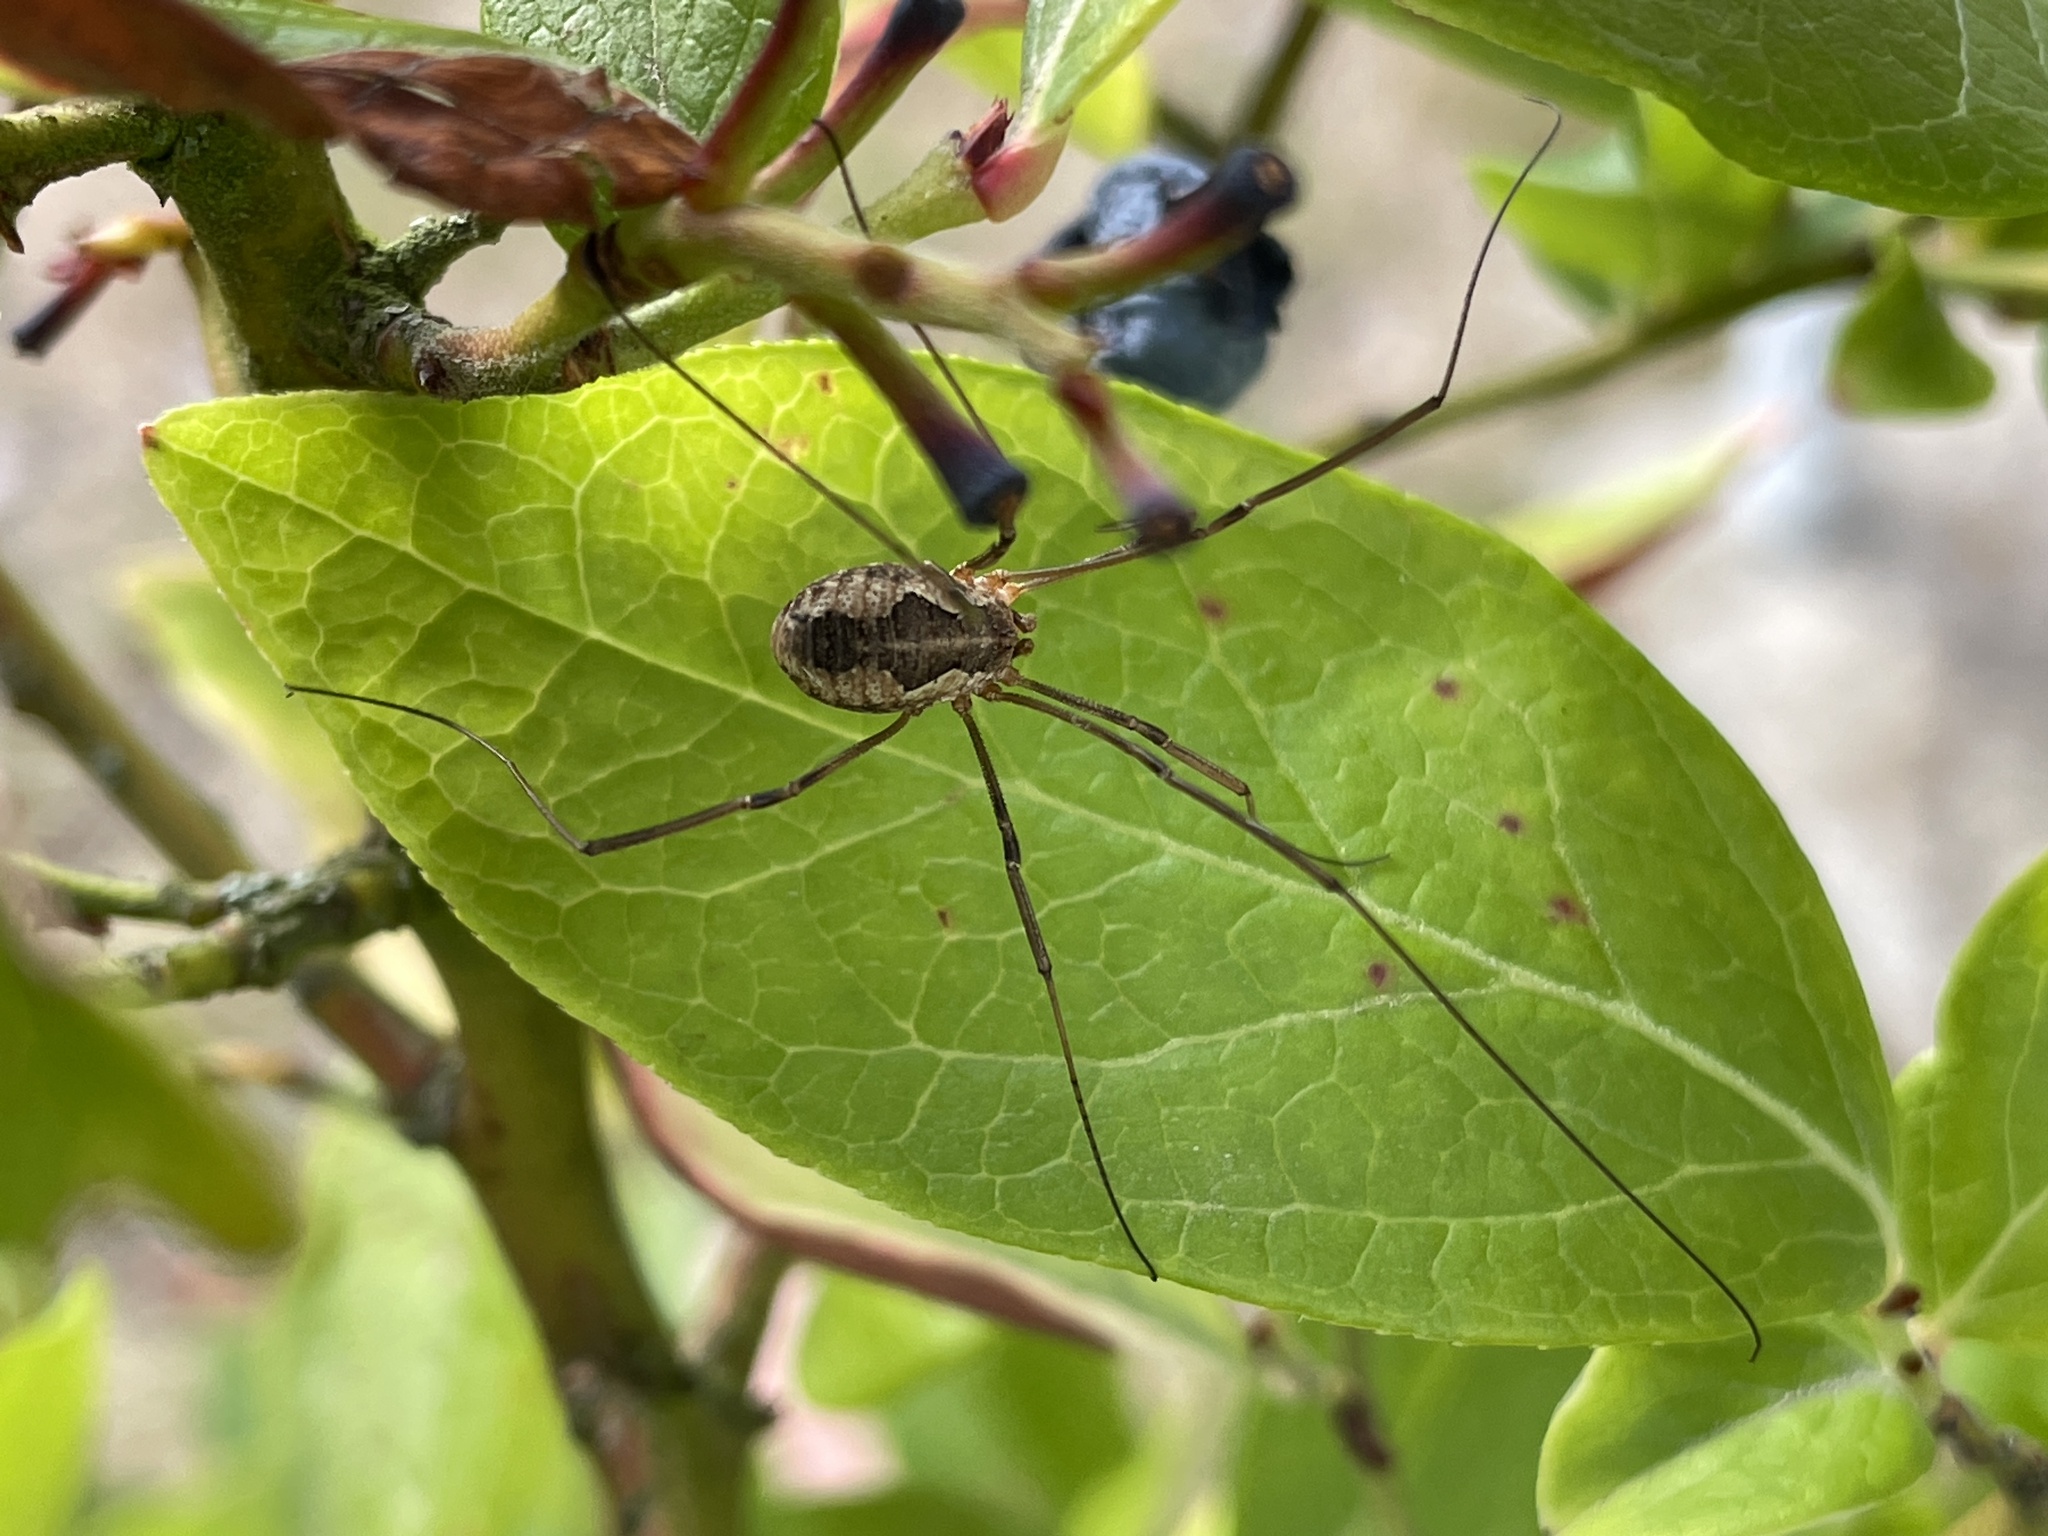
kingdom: Animalia
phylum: Arthropoda
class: Arachnida
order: Opiliones
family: Phalangiidae
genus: Phalangium
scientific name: Phalangium opilio
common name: Daddy longleg
